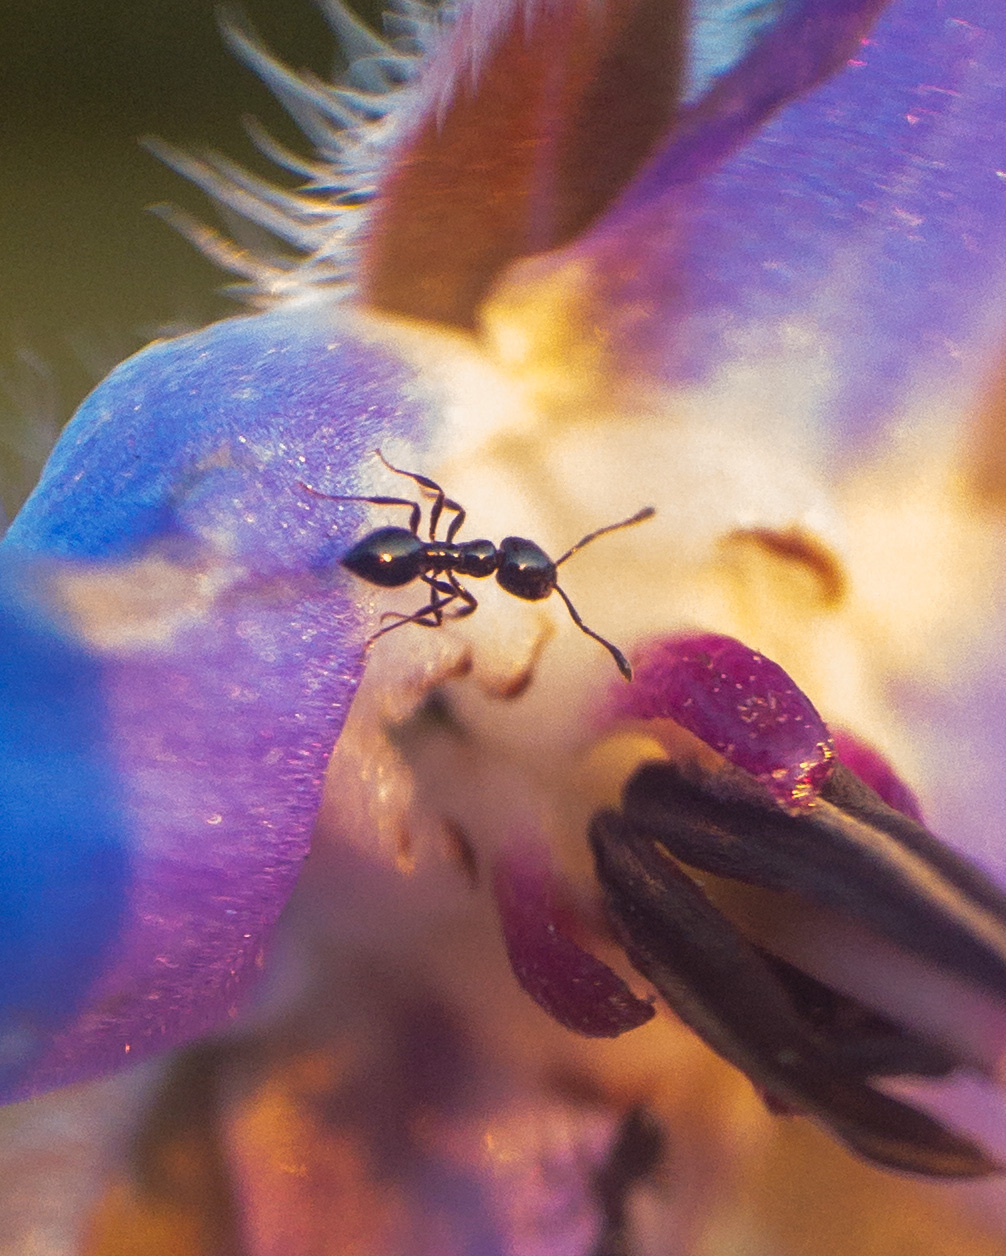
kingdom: Animalia
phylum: Arthropoda
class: Insecta
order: Hymenoptera
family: Formicidae
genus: Monomorium
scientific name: Monomorium minimum
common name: Little black ant
